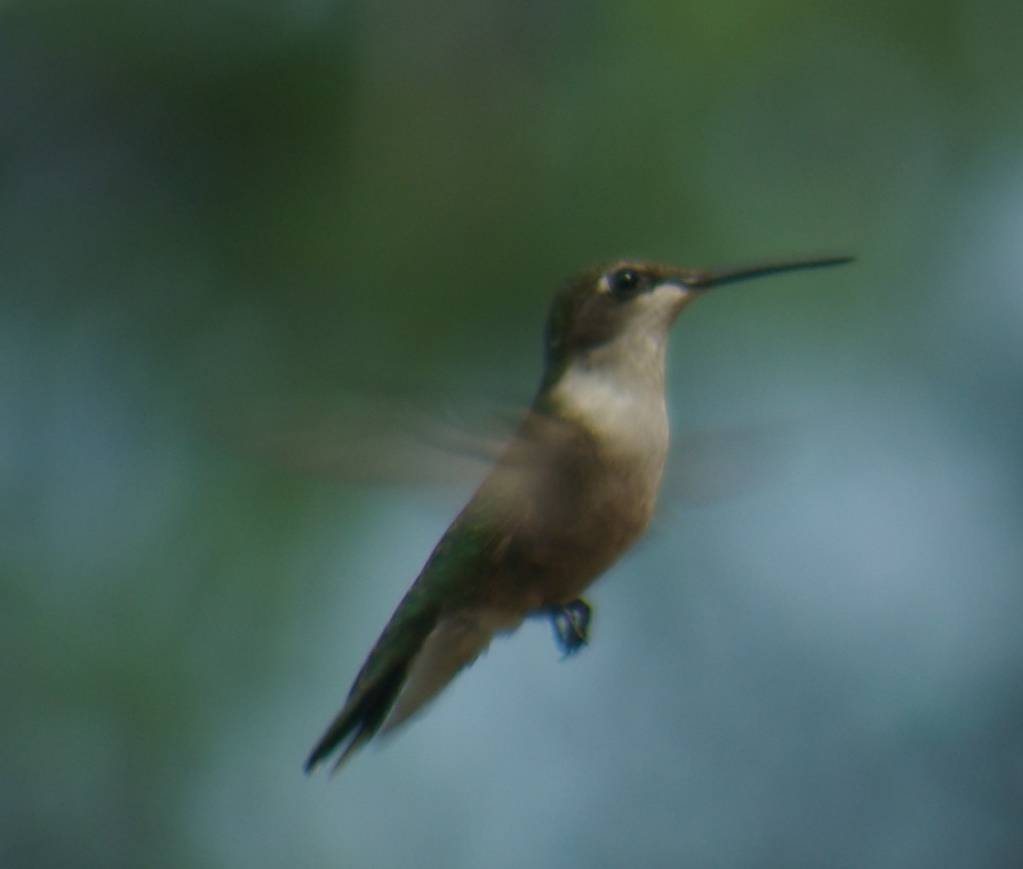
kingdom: Animalia
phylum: Chordata
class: Aves
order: Apodiformes
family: Trochilidae
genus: Archilochus
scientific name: Archilochus colubris
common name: Ruby-throated hummingbird
